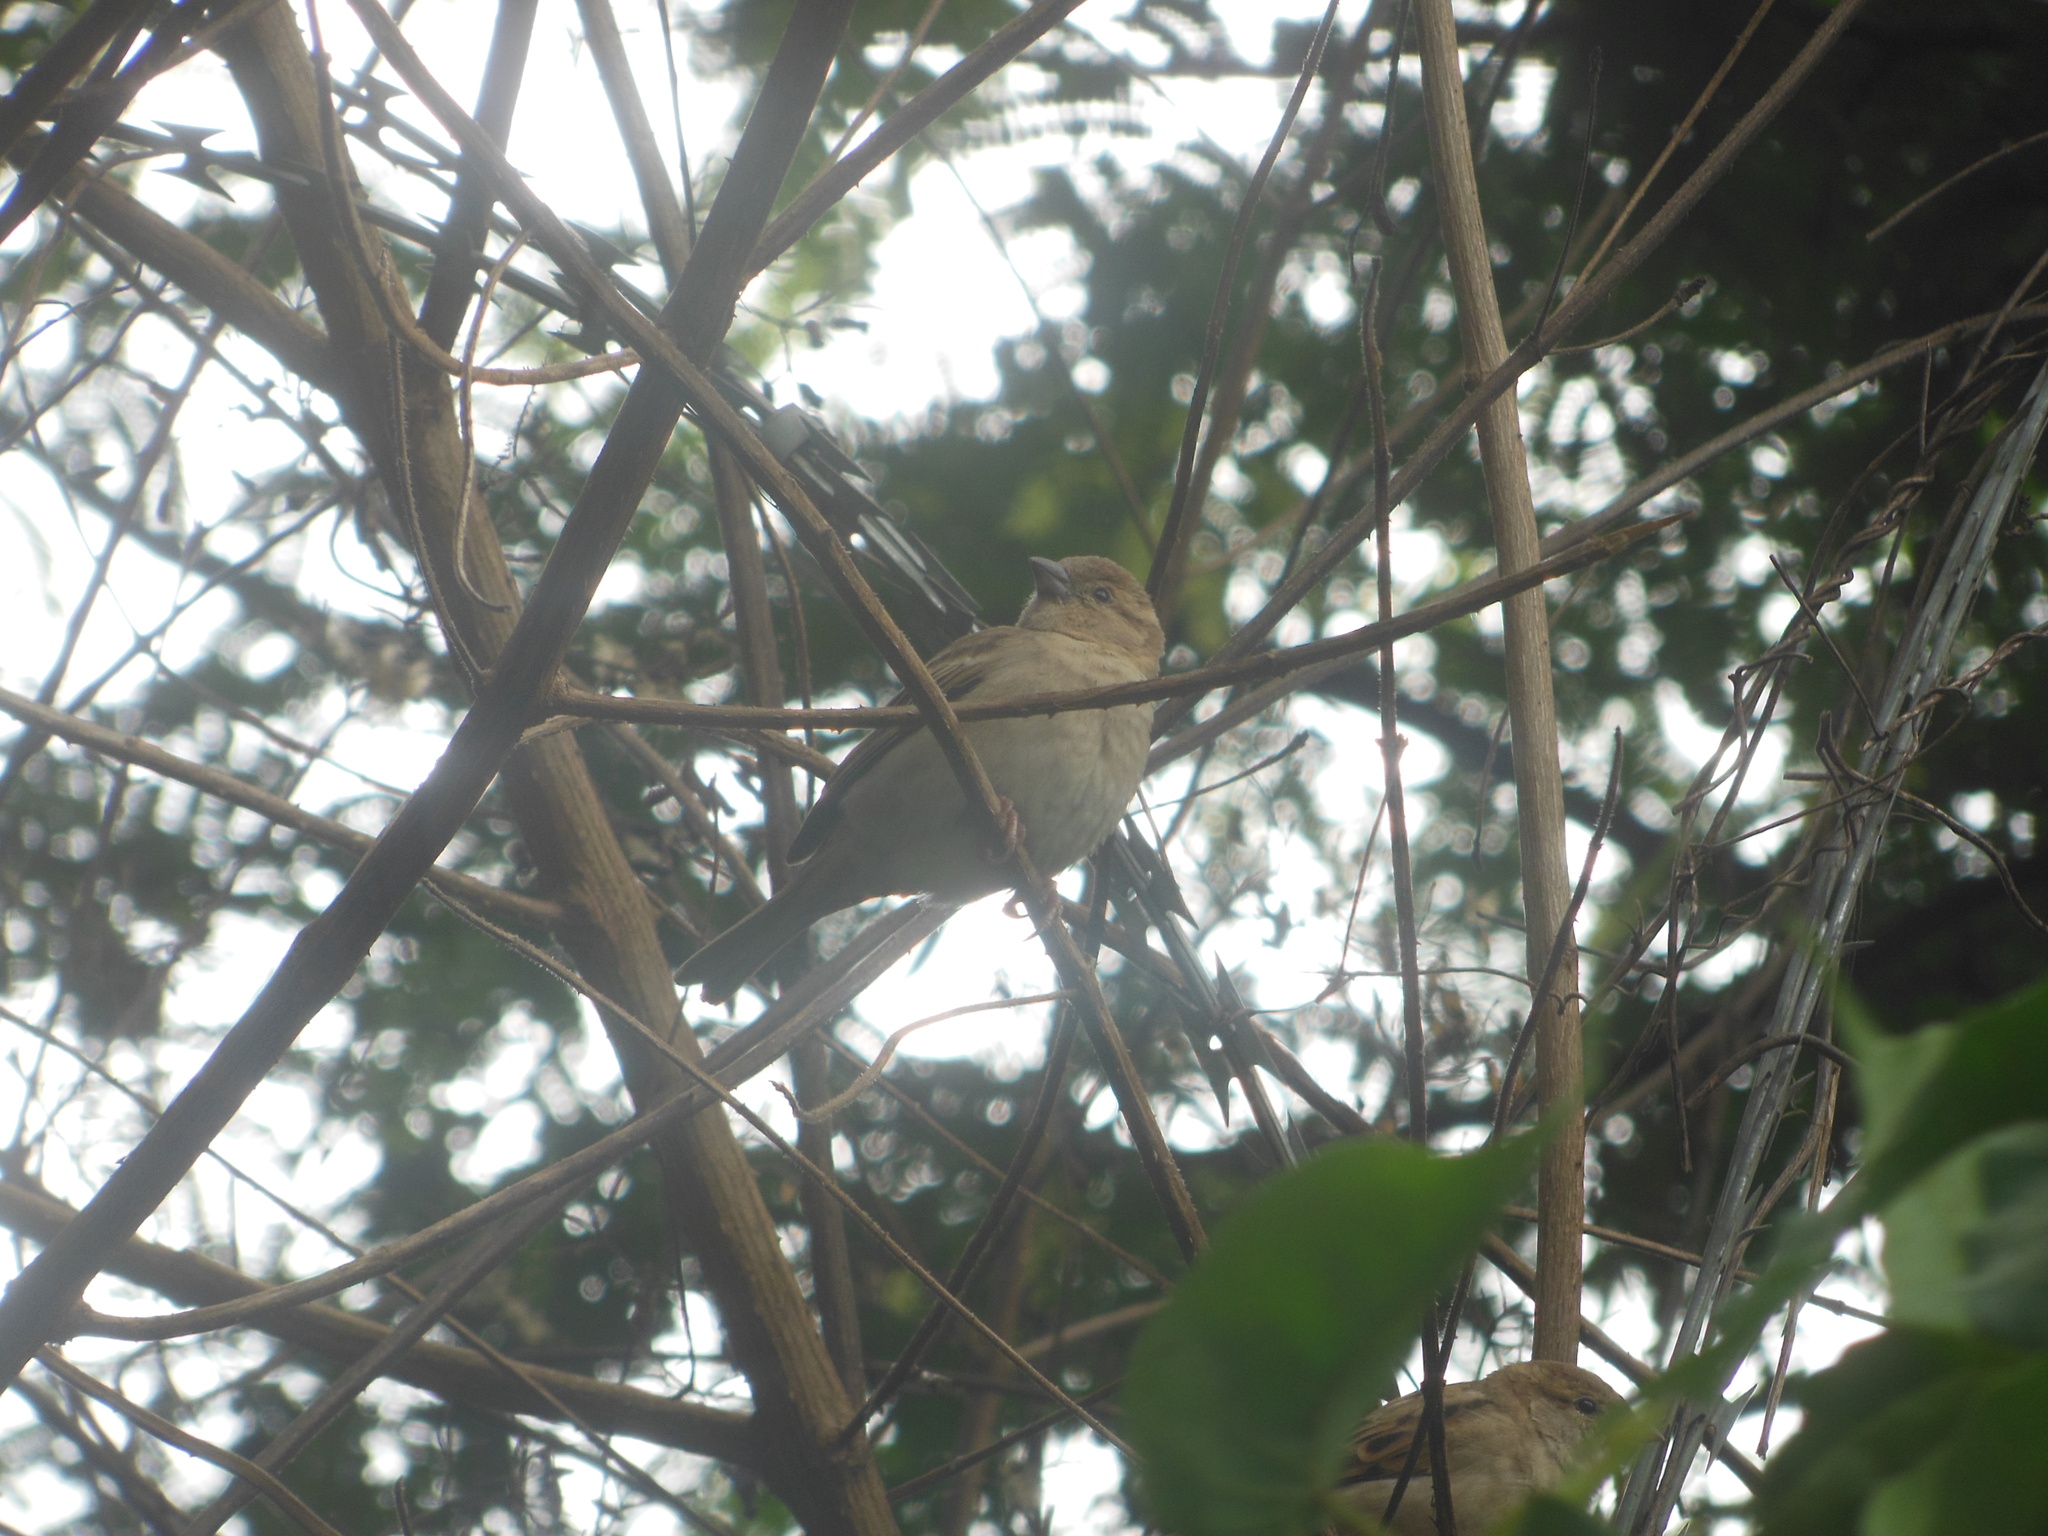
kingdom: Animalia
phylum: Chordata
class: Aves
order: Passeriformes
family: Passeridae
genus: Passer
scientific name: Passer domesticus
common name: House sparrow
